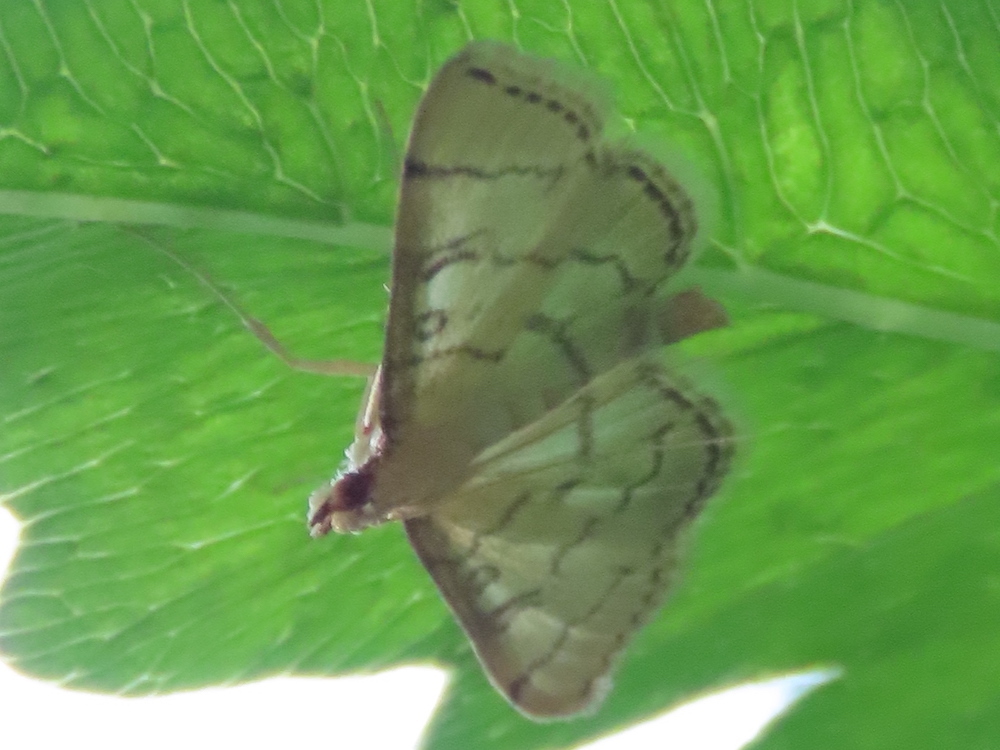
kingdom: Animalia
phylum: Arthropoda
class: Insecta
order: Lepidoptera
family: Crambidae
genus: Lamprosema
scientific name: Lamprosema Blepharomastix ranalis
